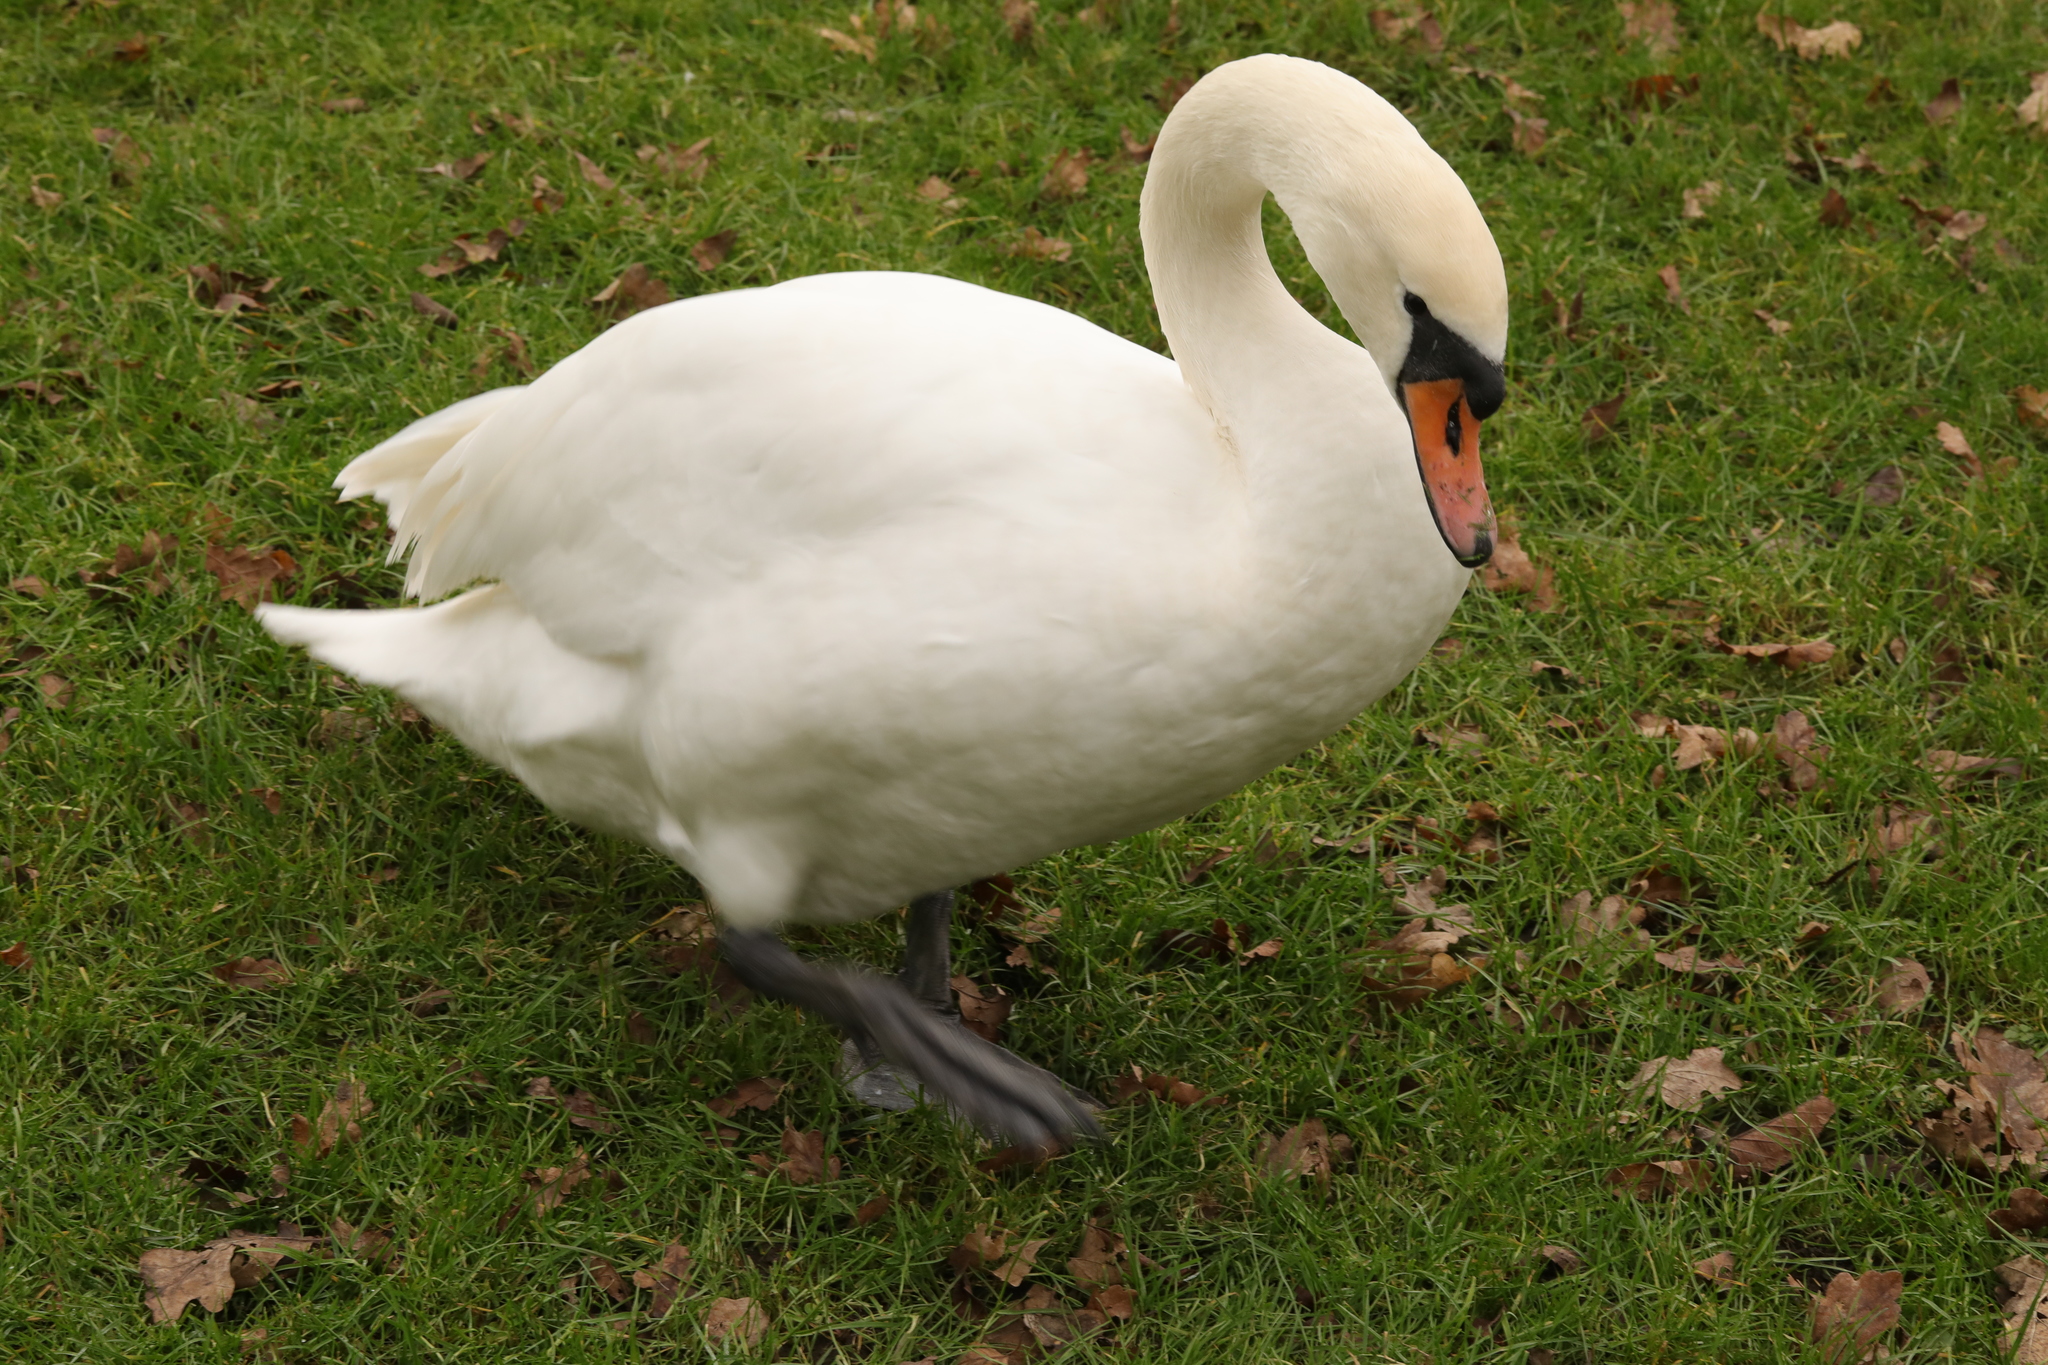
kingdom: Animalia
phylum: Chordata
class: Aves
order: Anseriformes
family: Anatidae
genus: Cygnus
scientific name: Cygnus olor
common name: Mute swan
